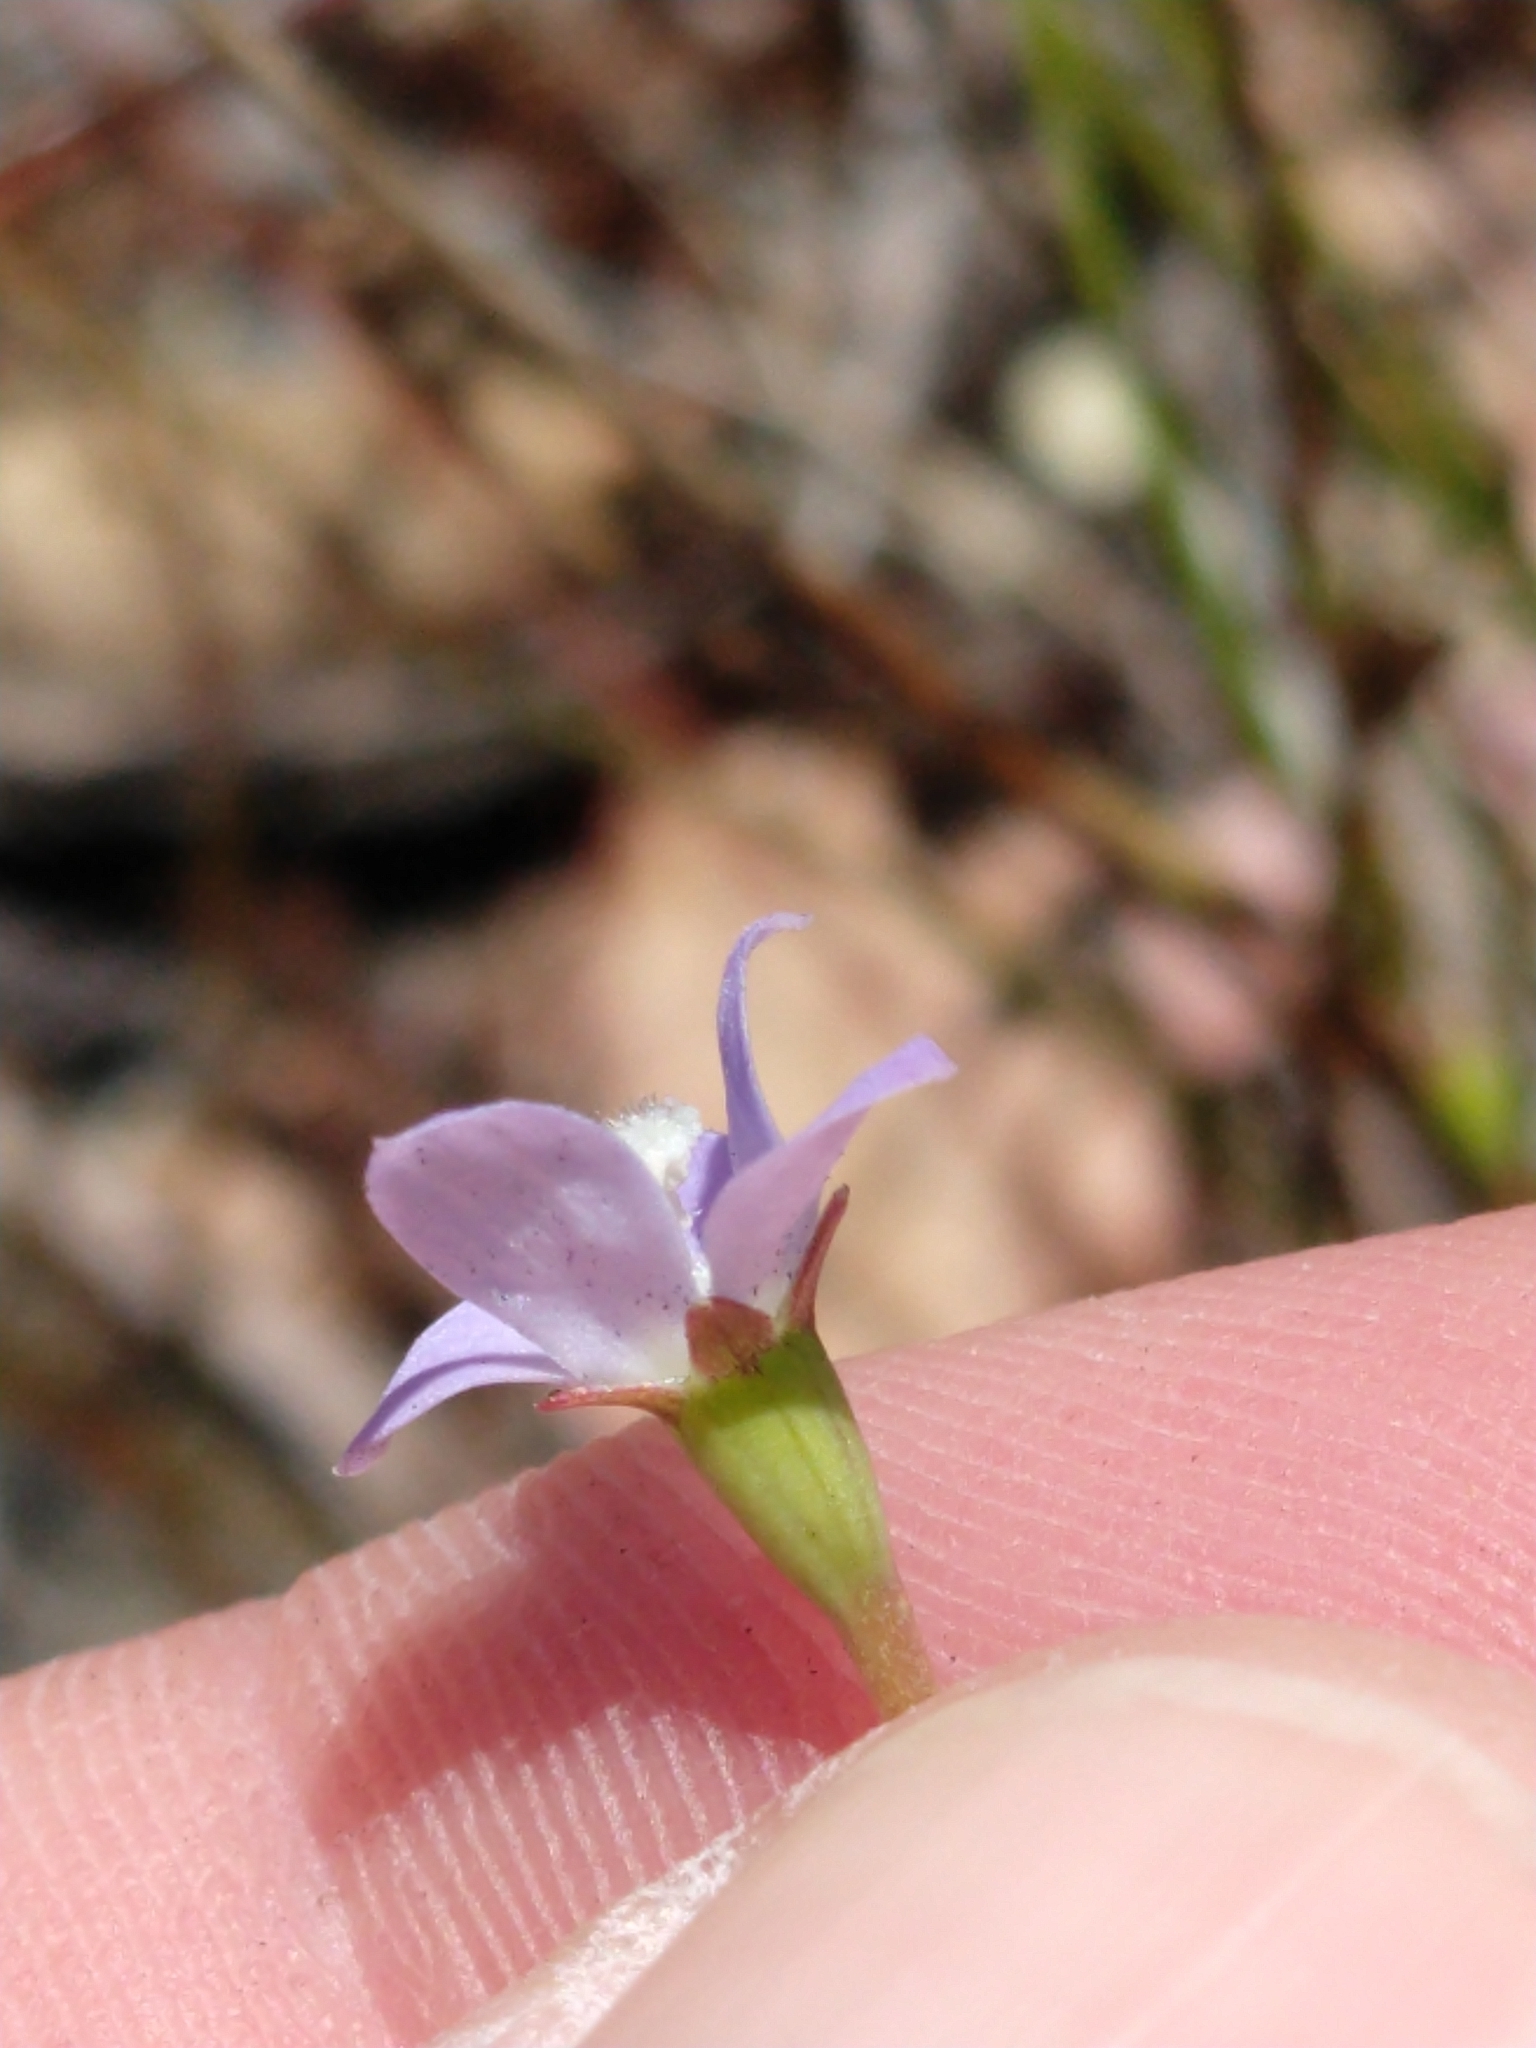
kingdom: Plantae
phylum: Tracheophyta
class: Magnoliopsida
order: Asterales
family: Campanulaceae
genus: Wahlenbergia
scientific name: Wahlenbergia marginata
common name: Southern rockbell
